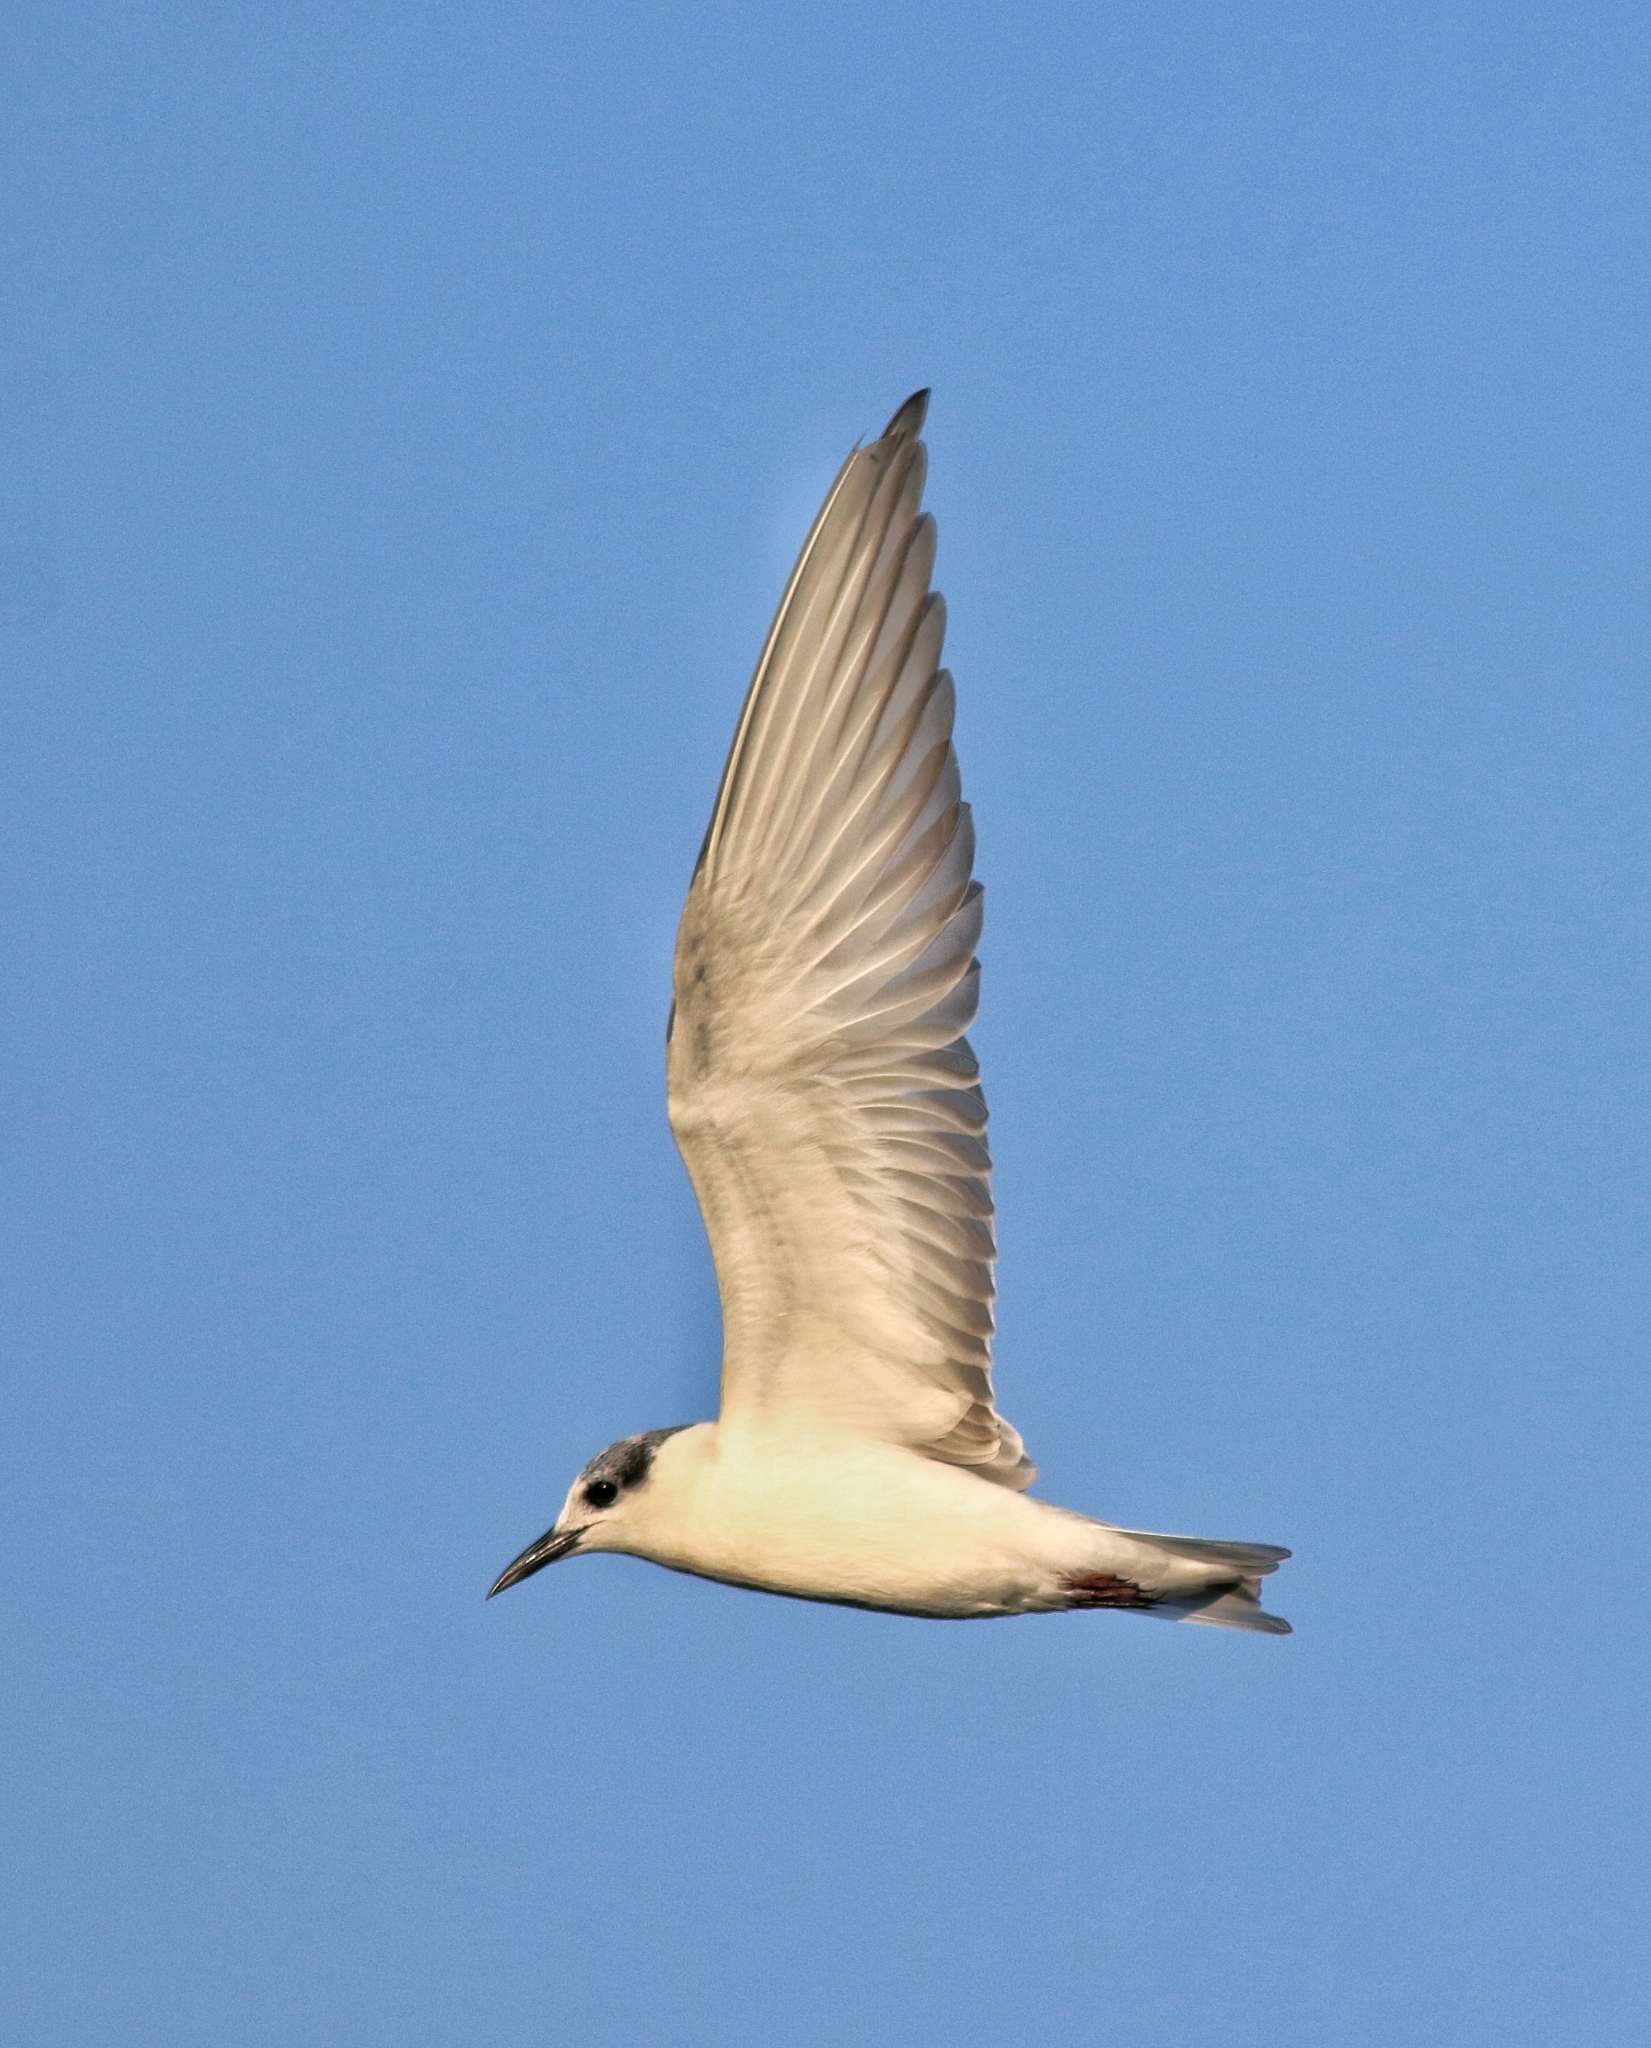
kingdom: Animalia
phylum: Chordata
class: Aves
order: Charadriiformes
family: Laridae
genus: Chlidonias
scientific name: Chlidonias hybrida
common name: Whiskered tern
